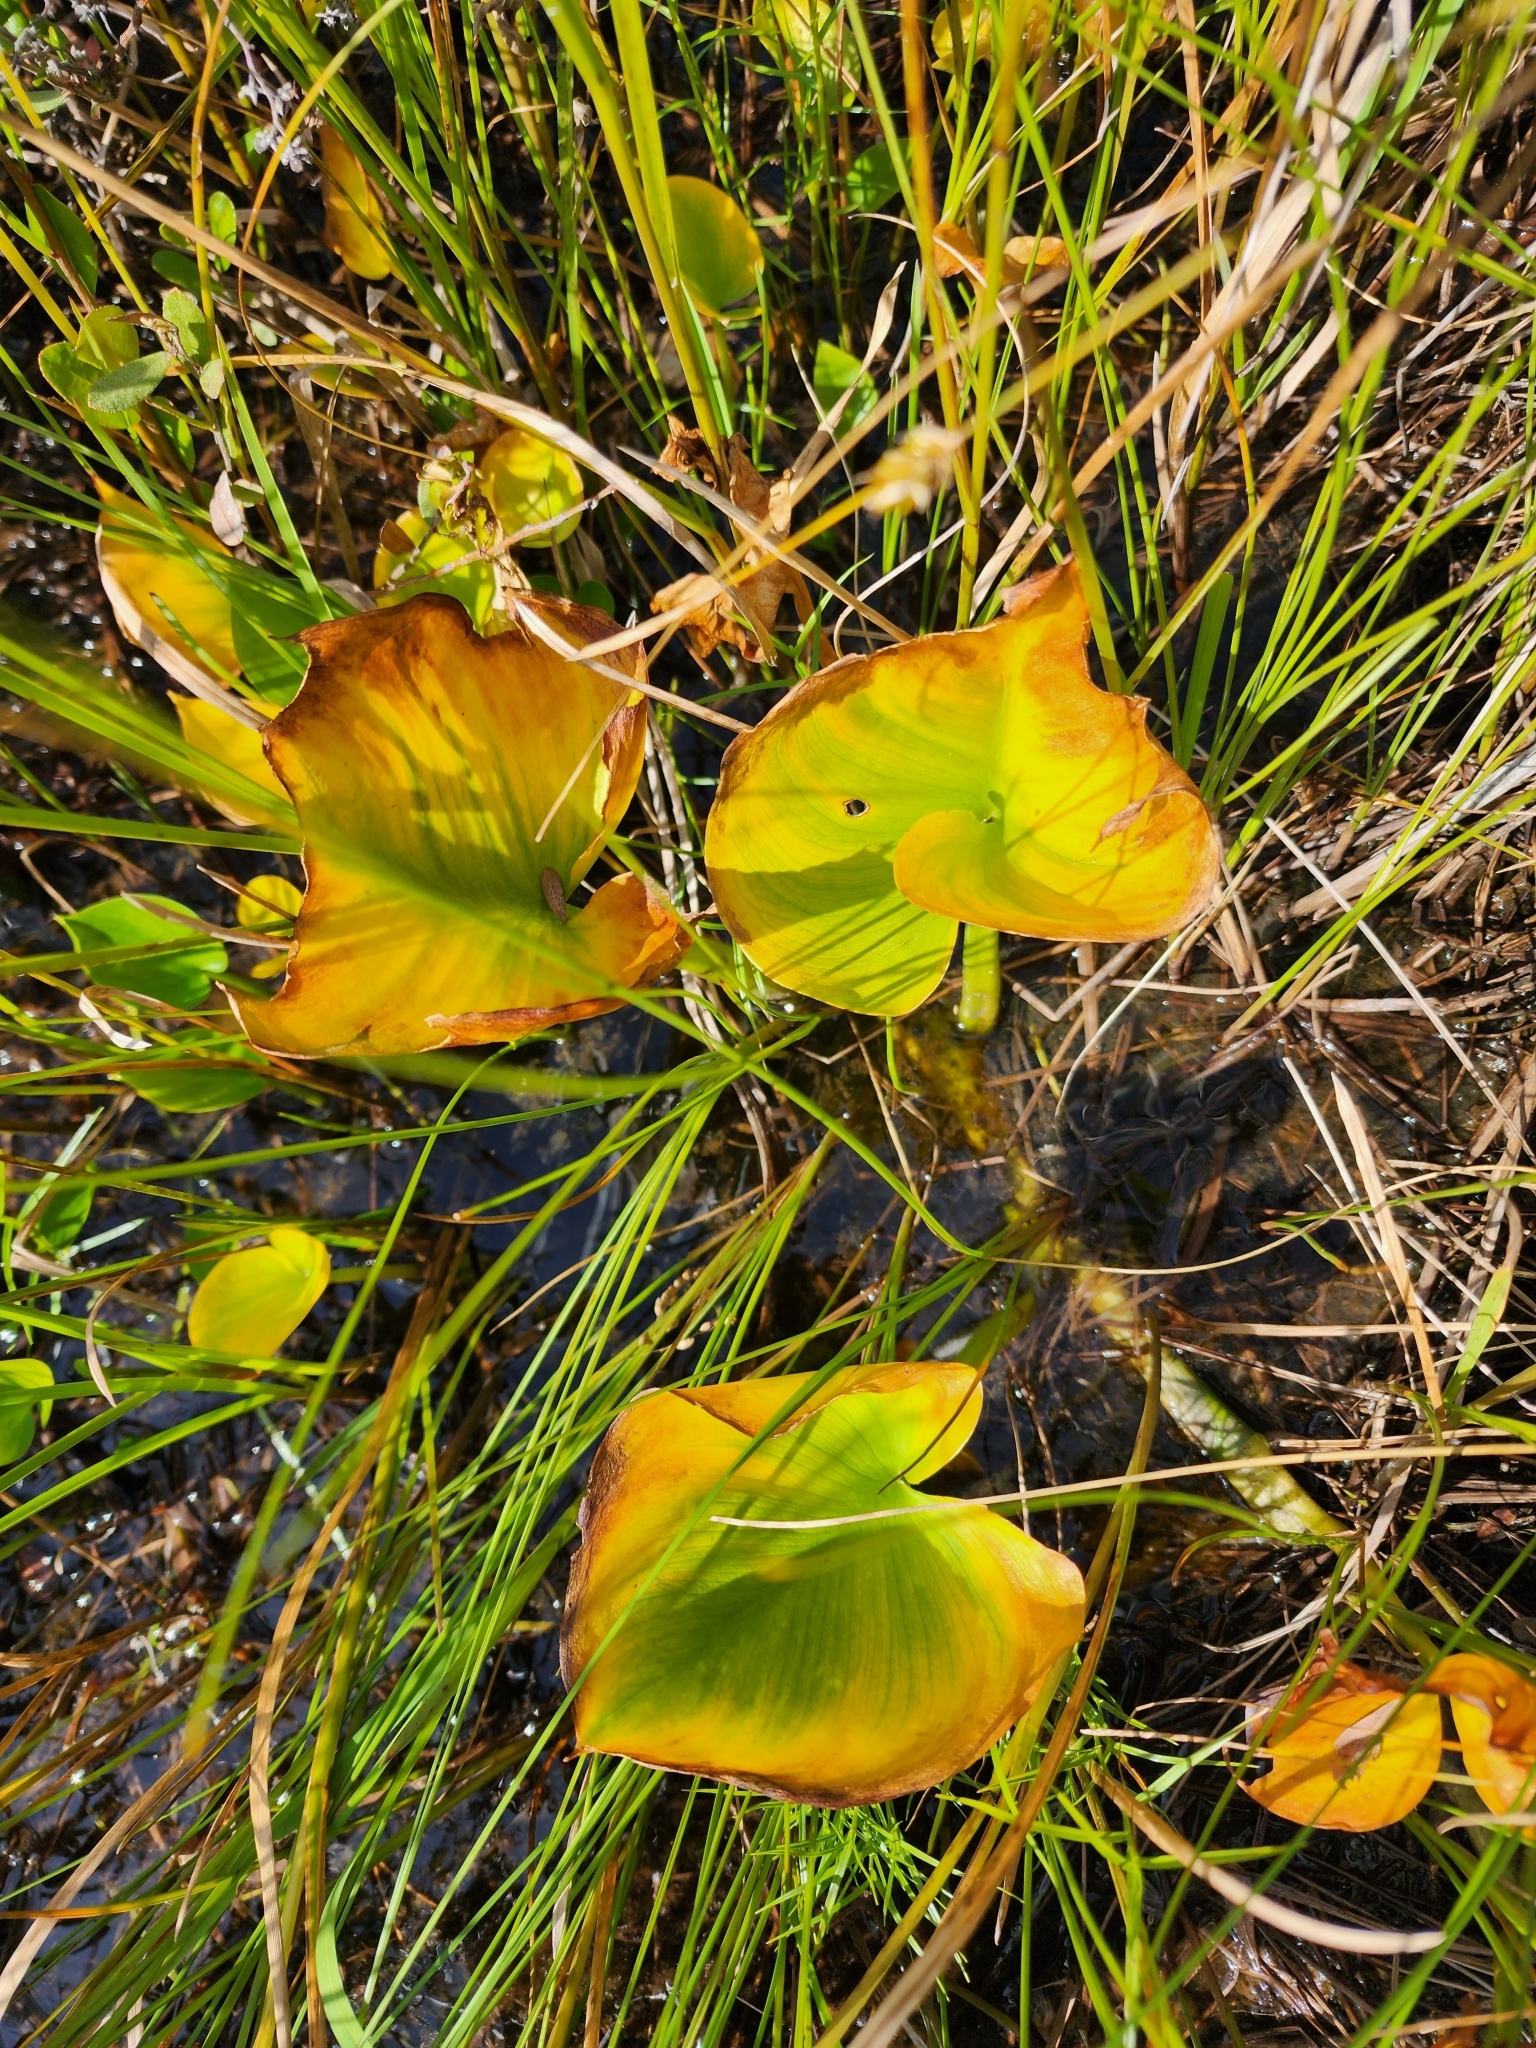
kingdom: Plantae
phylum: Tracheophyta
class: Liliopsida
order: Alismatales
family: Araceae
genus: Calla
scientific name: Calla palustris
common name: Bog arum
